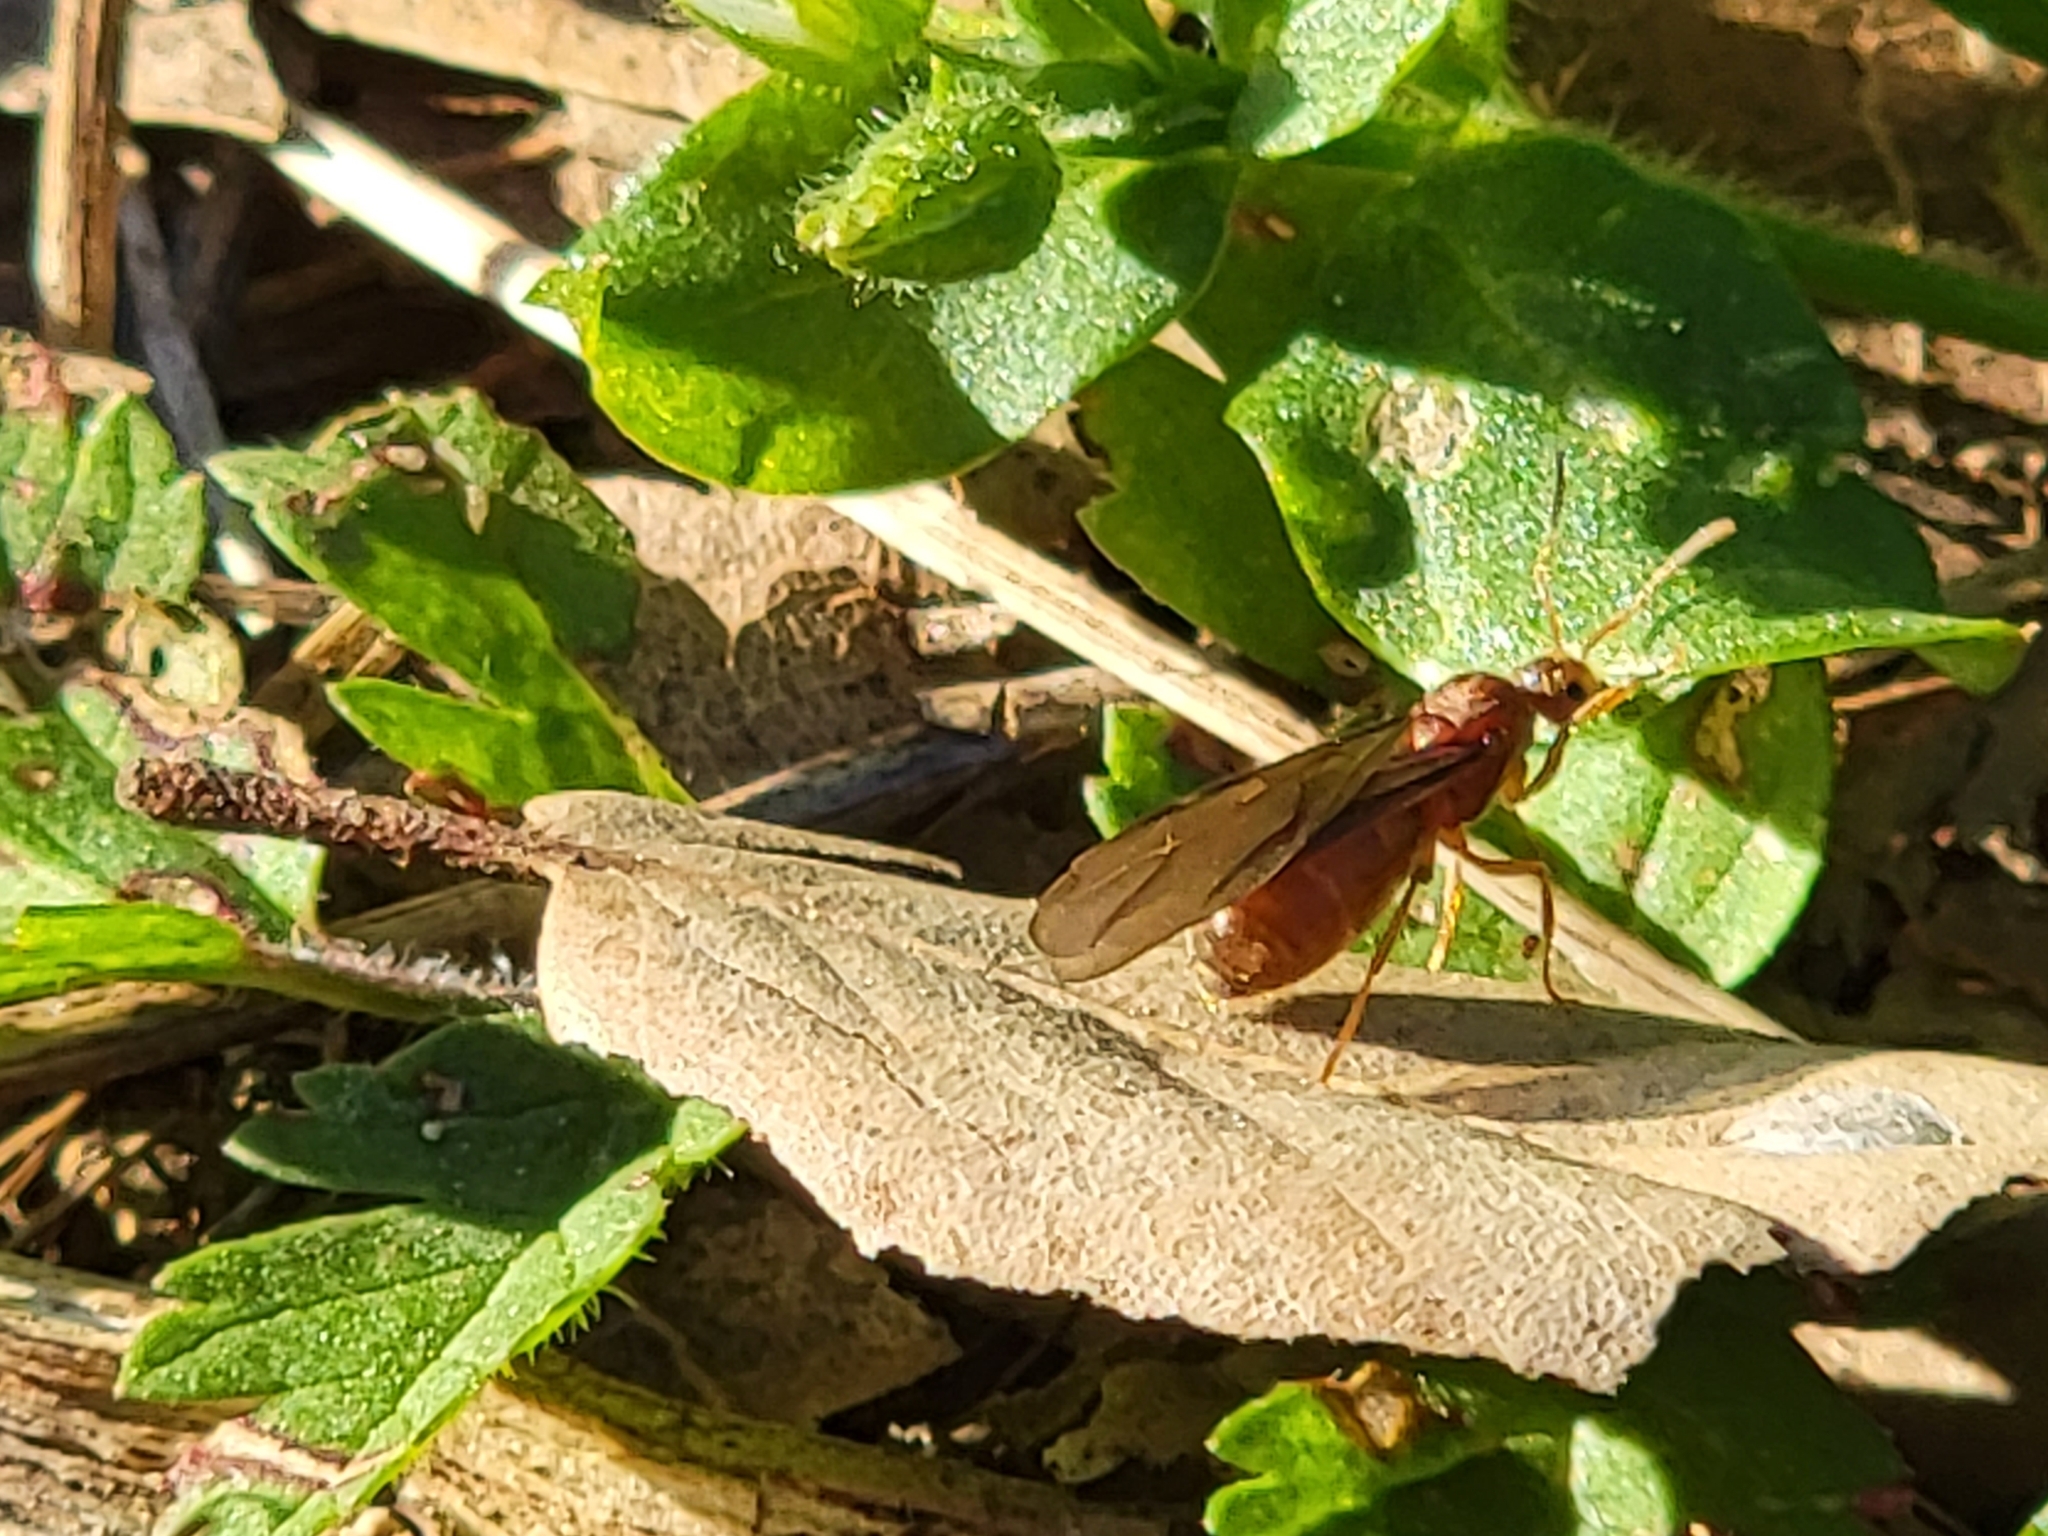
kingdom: Animalia
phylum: Arthropoda
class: Insecta
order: Hymenoptera
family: Formicidae
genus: Prenolepis
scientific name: Prenolepis imparis
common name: Small honey ant
